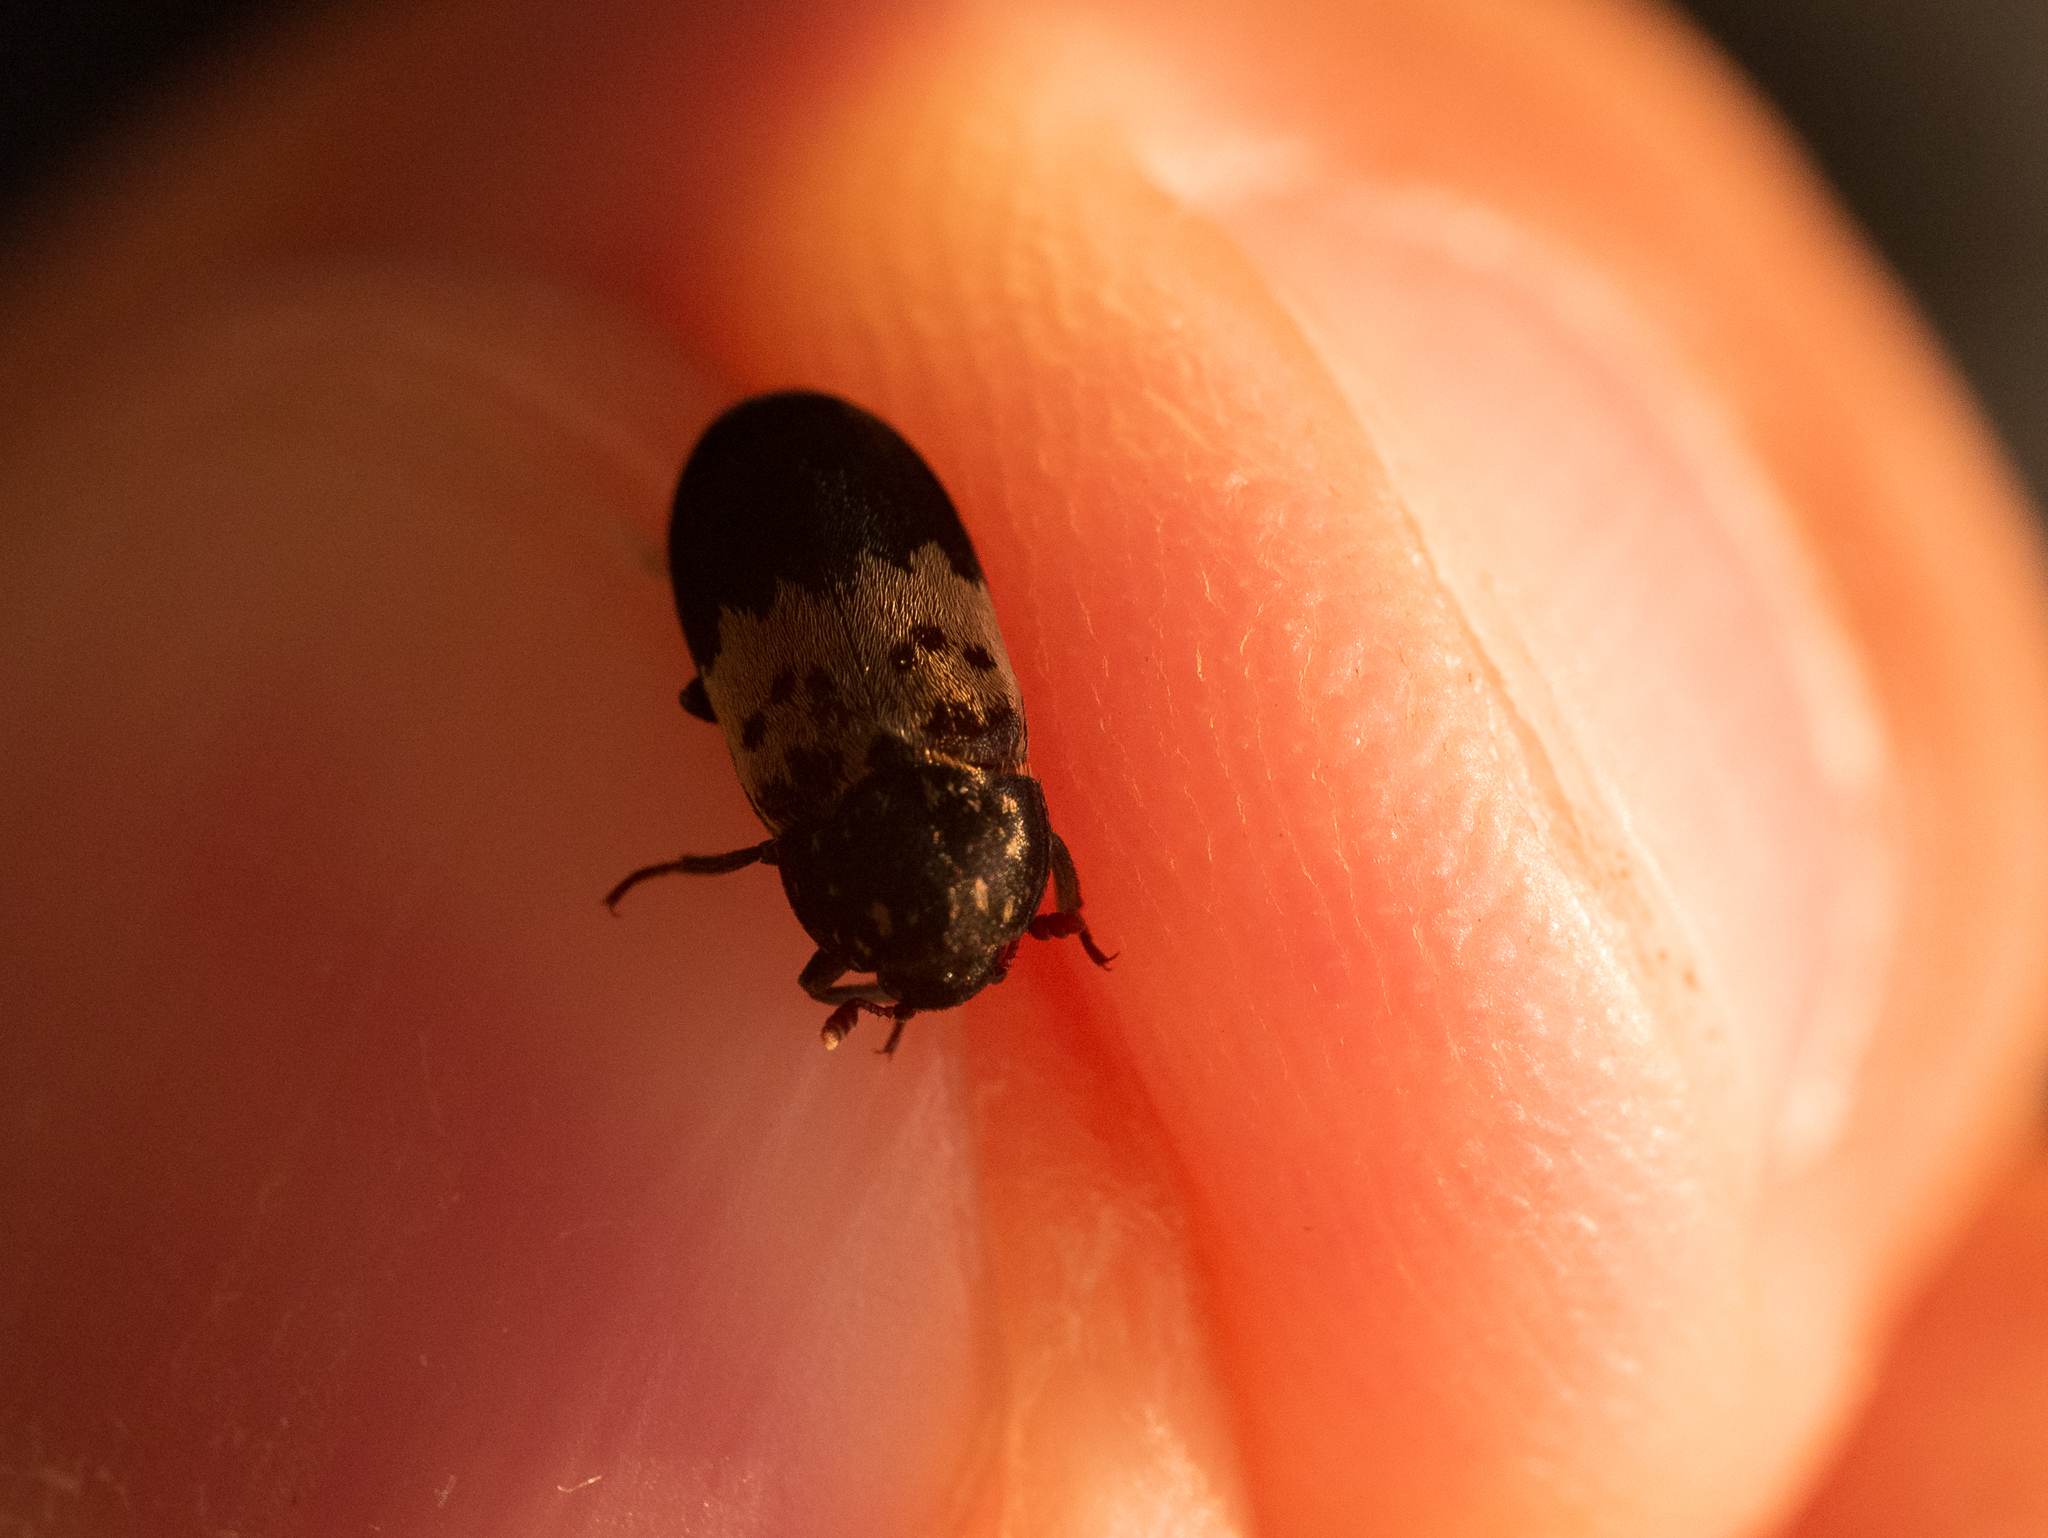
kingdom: Animalia
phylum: Arthropoda
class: Insecta
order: Coleoptera
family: Dermestidae
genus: Dermestes
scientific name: Dermestes lardarius
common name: Larder beetle
